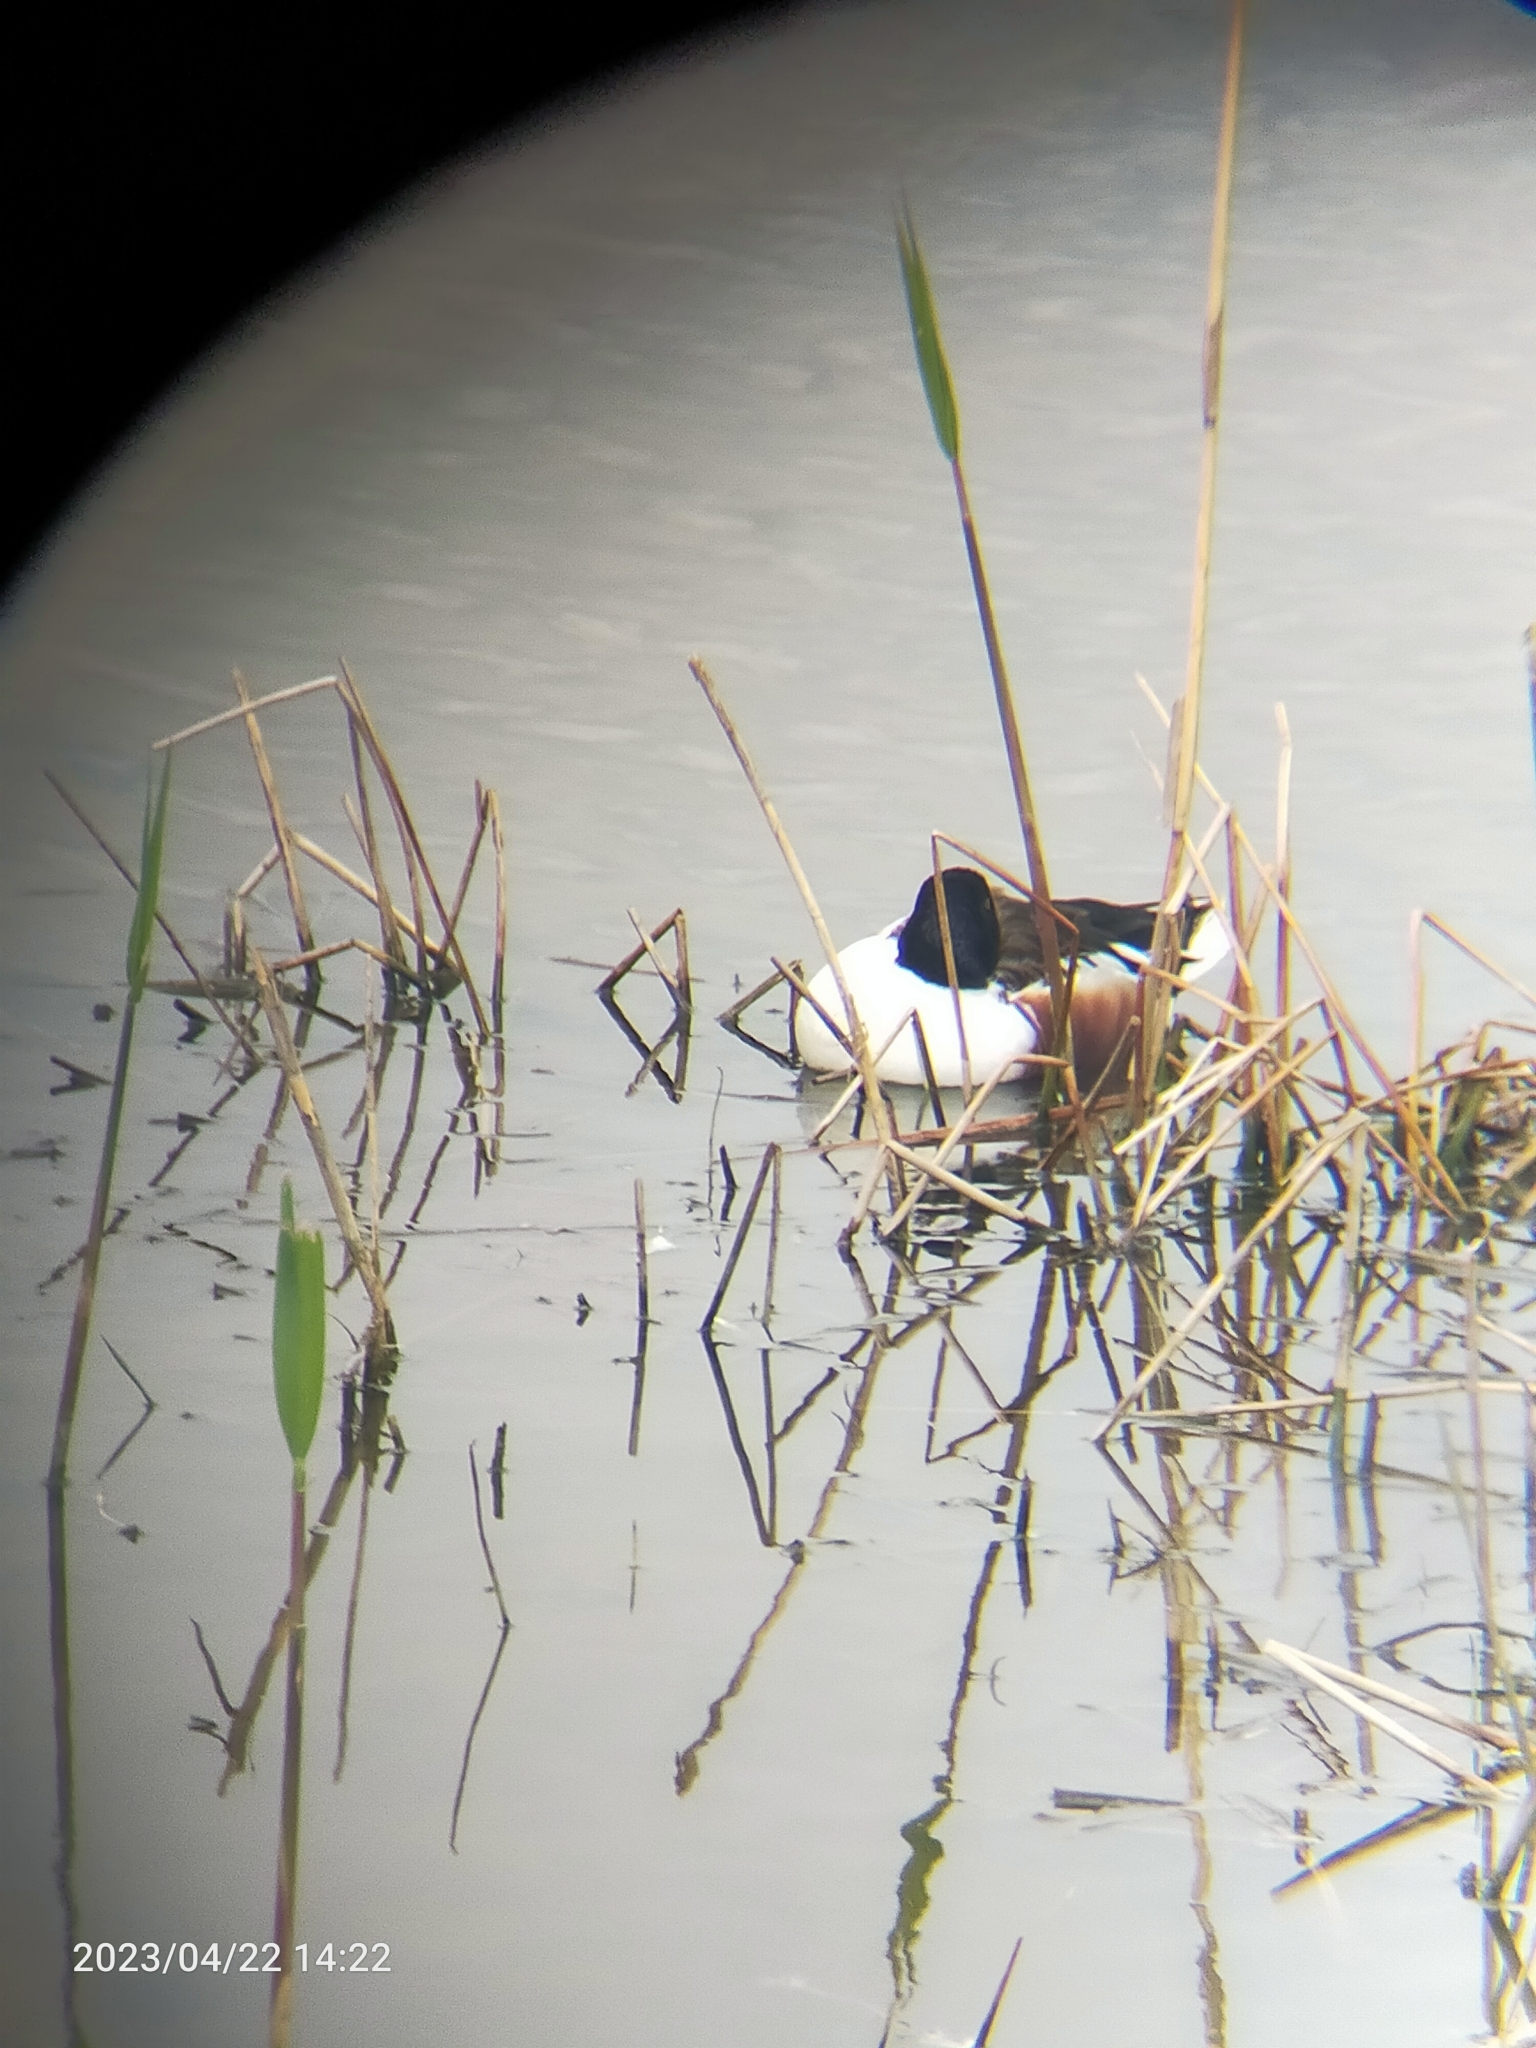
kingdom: Animalia
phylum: Chordata
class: Aves
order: Anseriformes
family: Anatidae
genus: Spatula
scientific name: Spatula clypeata
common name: Northern shoveler
